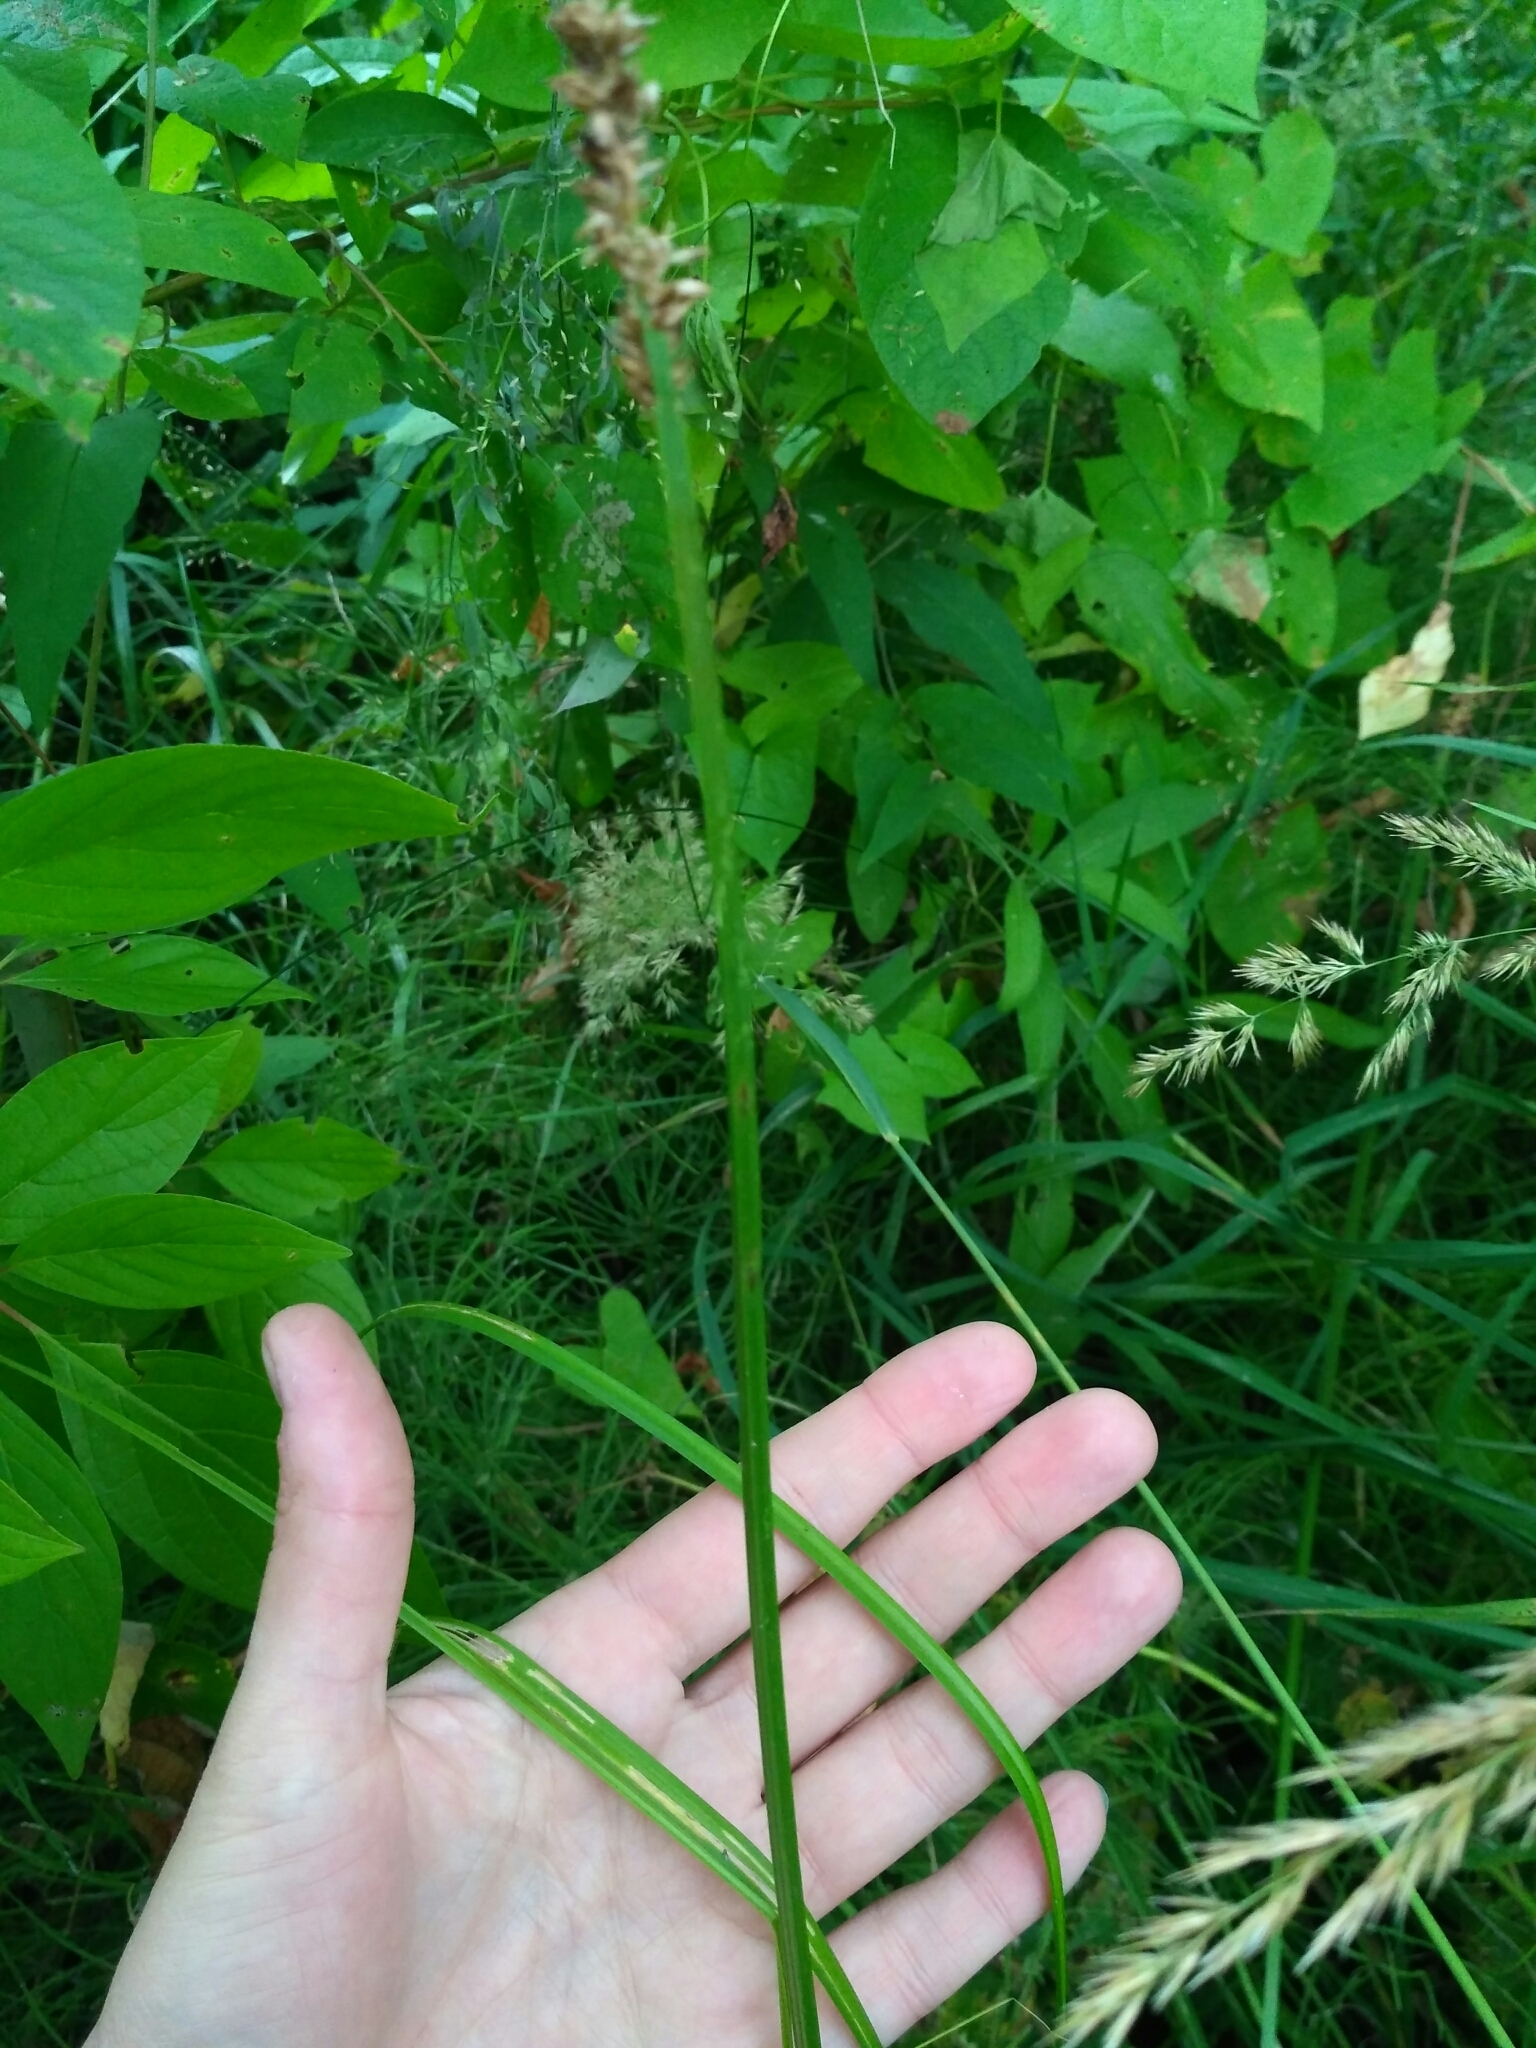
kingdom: Plantae
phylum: Tracheophyta
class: Liliopsida
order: Poales
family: Cyperaceae
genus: Carex
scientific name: Carex vulpina
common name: True fox-sedge
